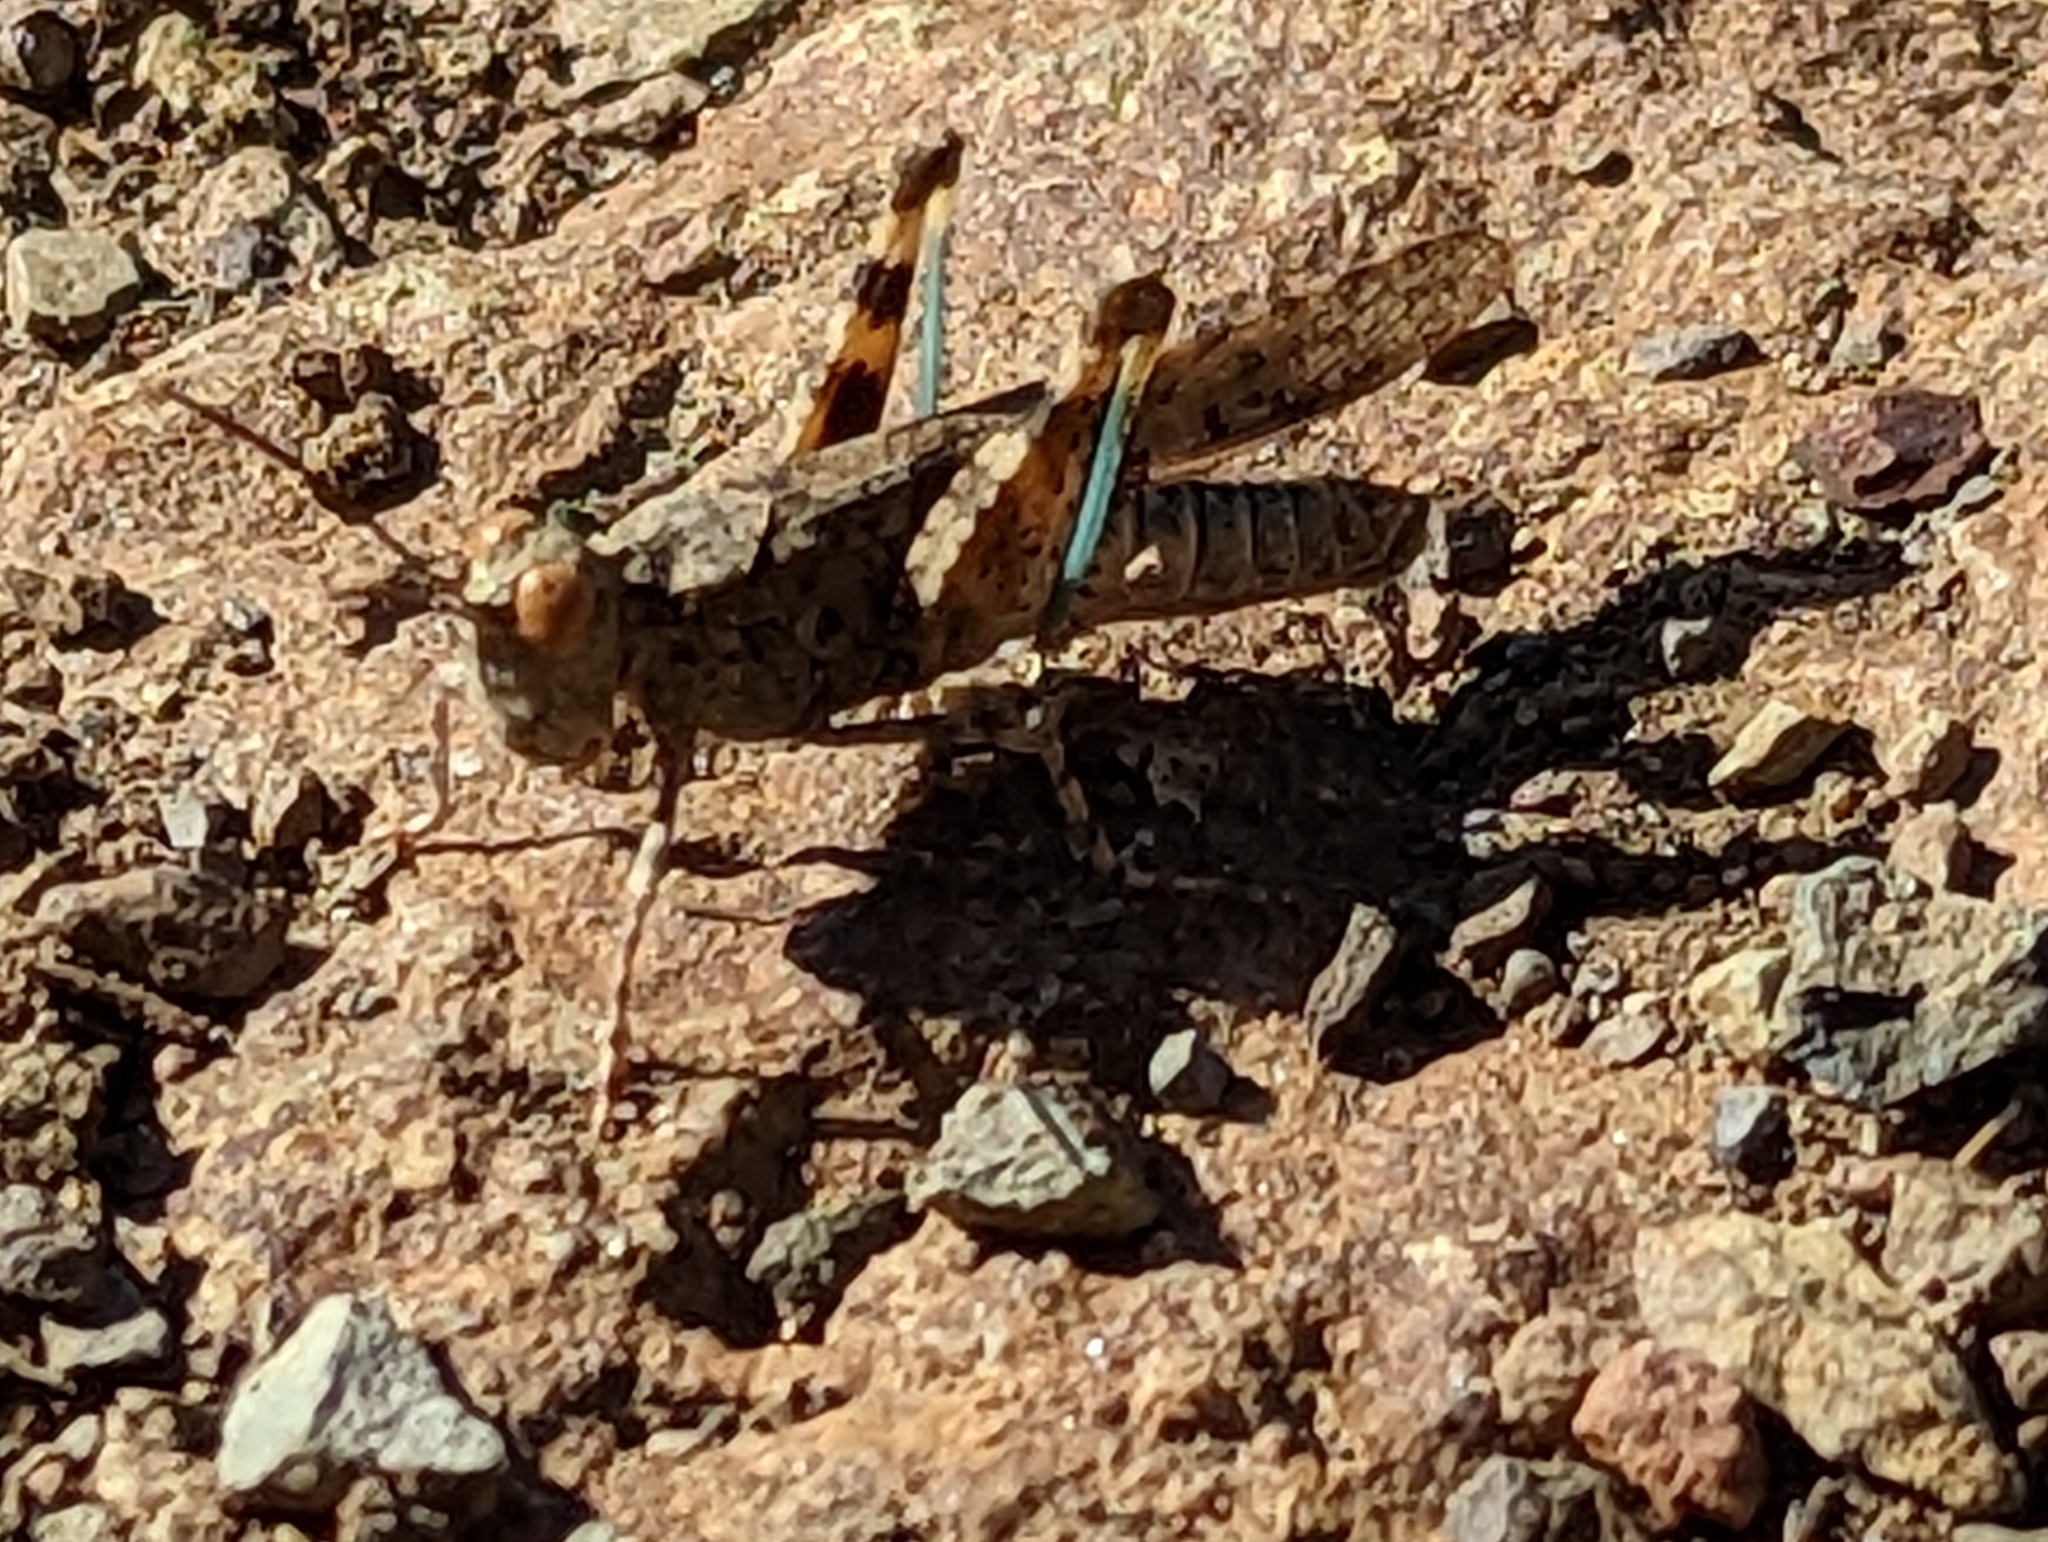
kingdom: Animalia
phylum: Arthropoda
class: Insecta
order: Orthoptera
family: Acrididae
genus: Trimerotropis
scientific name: Trimerotropis occidentalis
